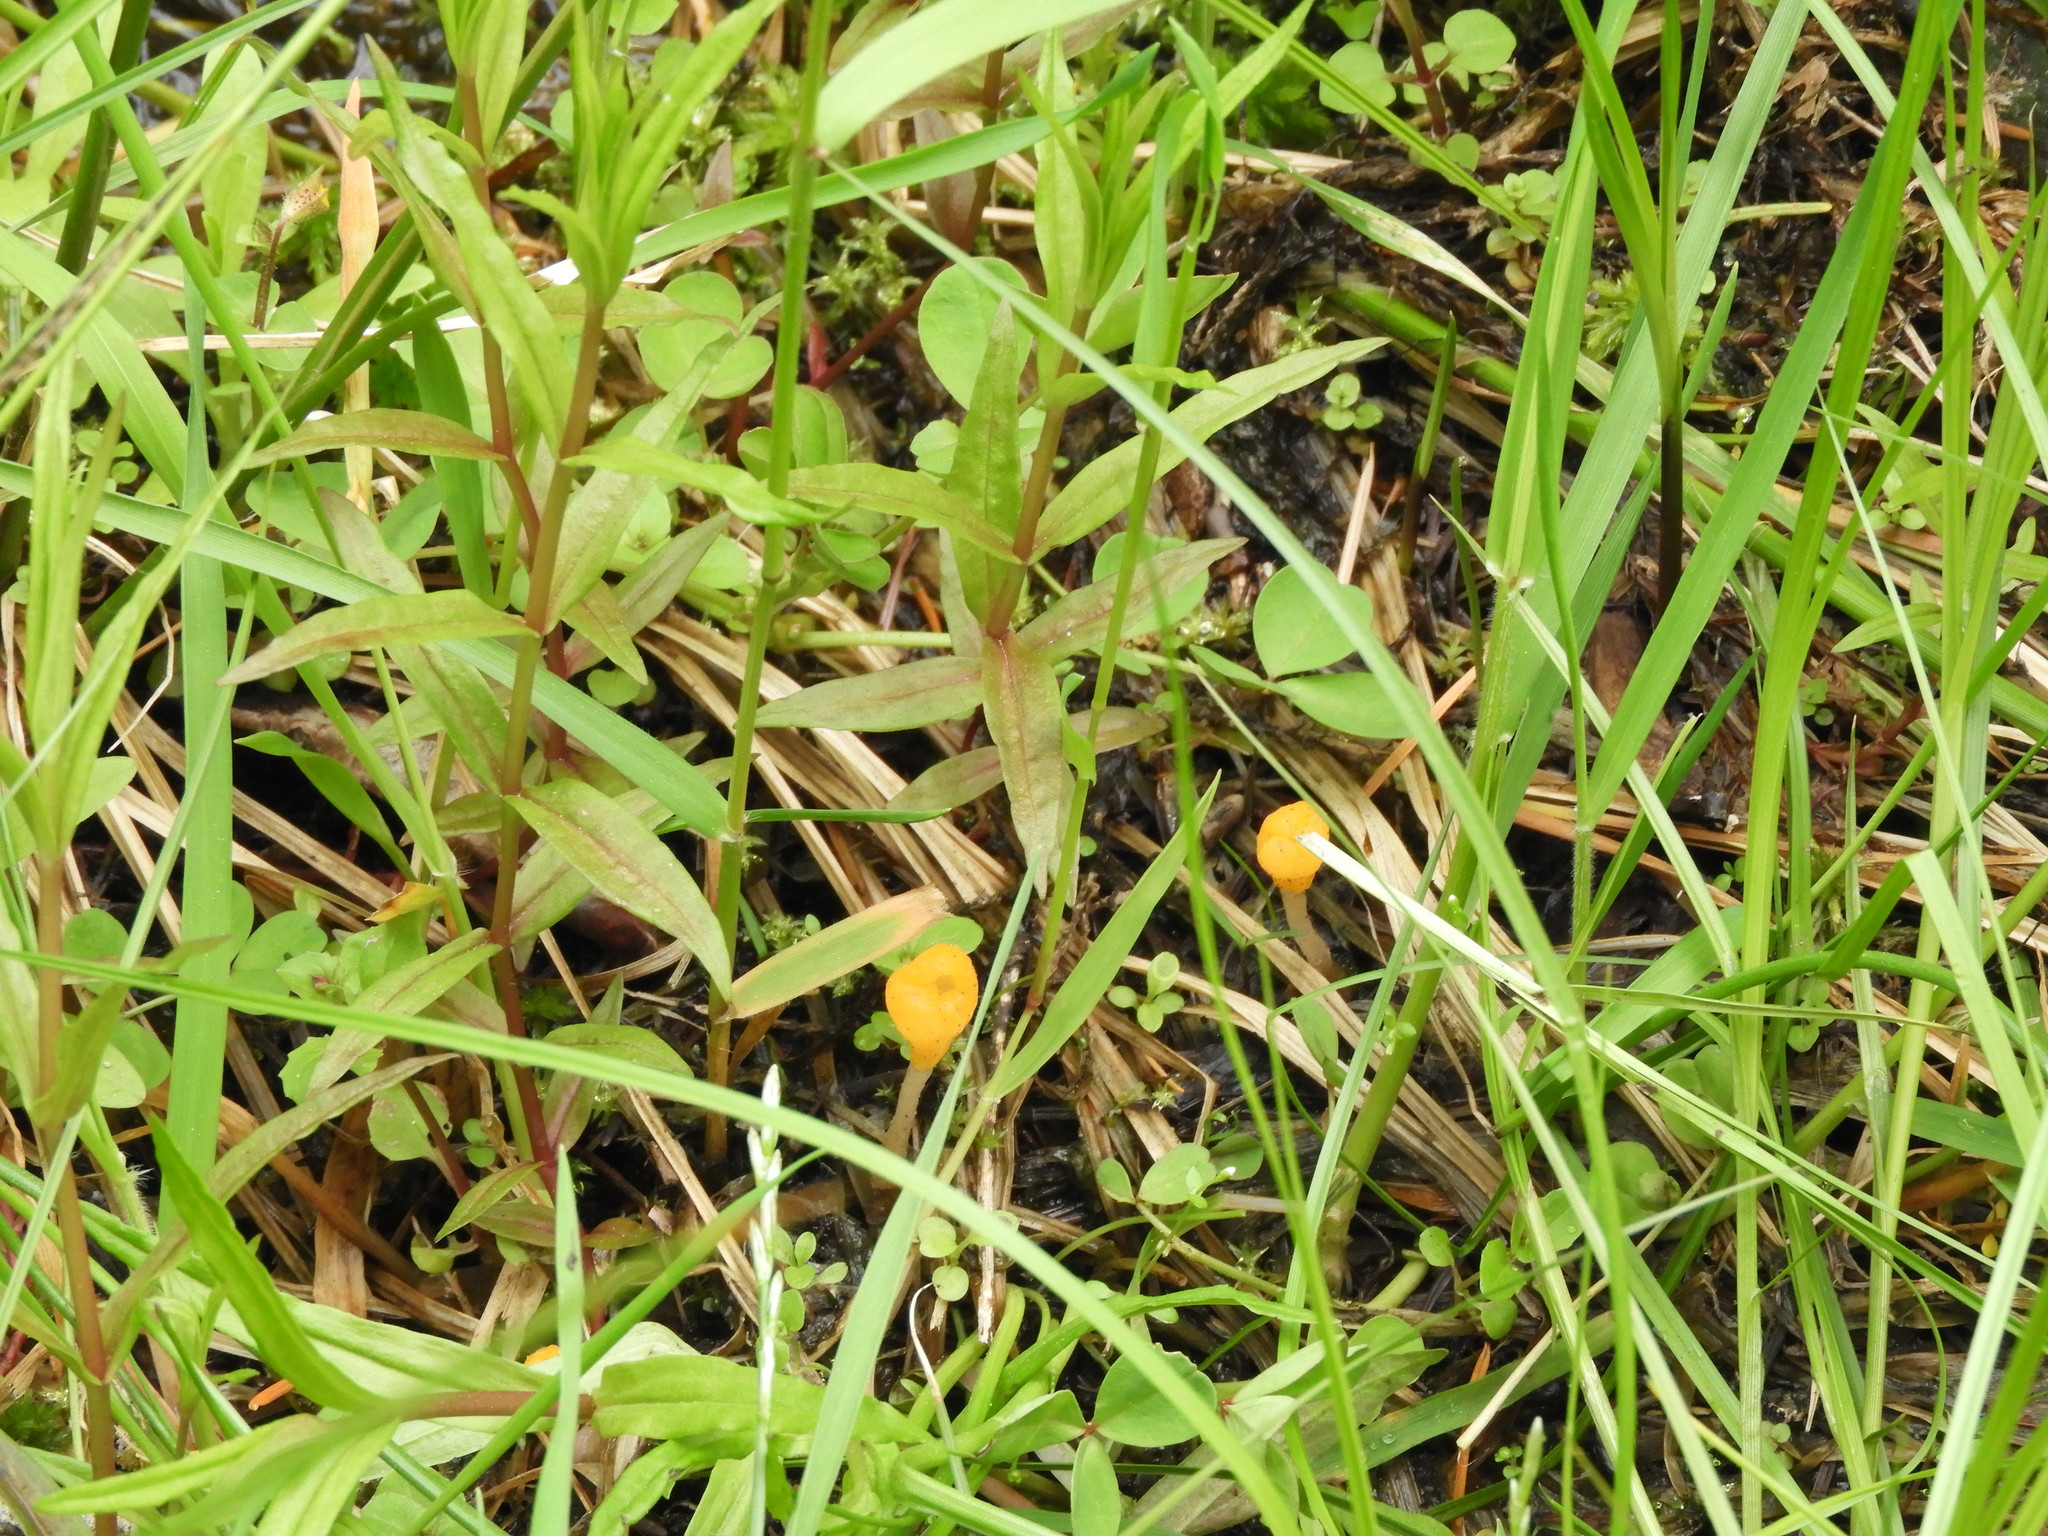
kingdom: Fungi
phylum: Ascomycota
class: Leotiomycetes
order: Helotiales
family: Sclerotiniaceae
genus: Mitrula
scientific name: Mitrula elegans
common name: Swamp beacon
